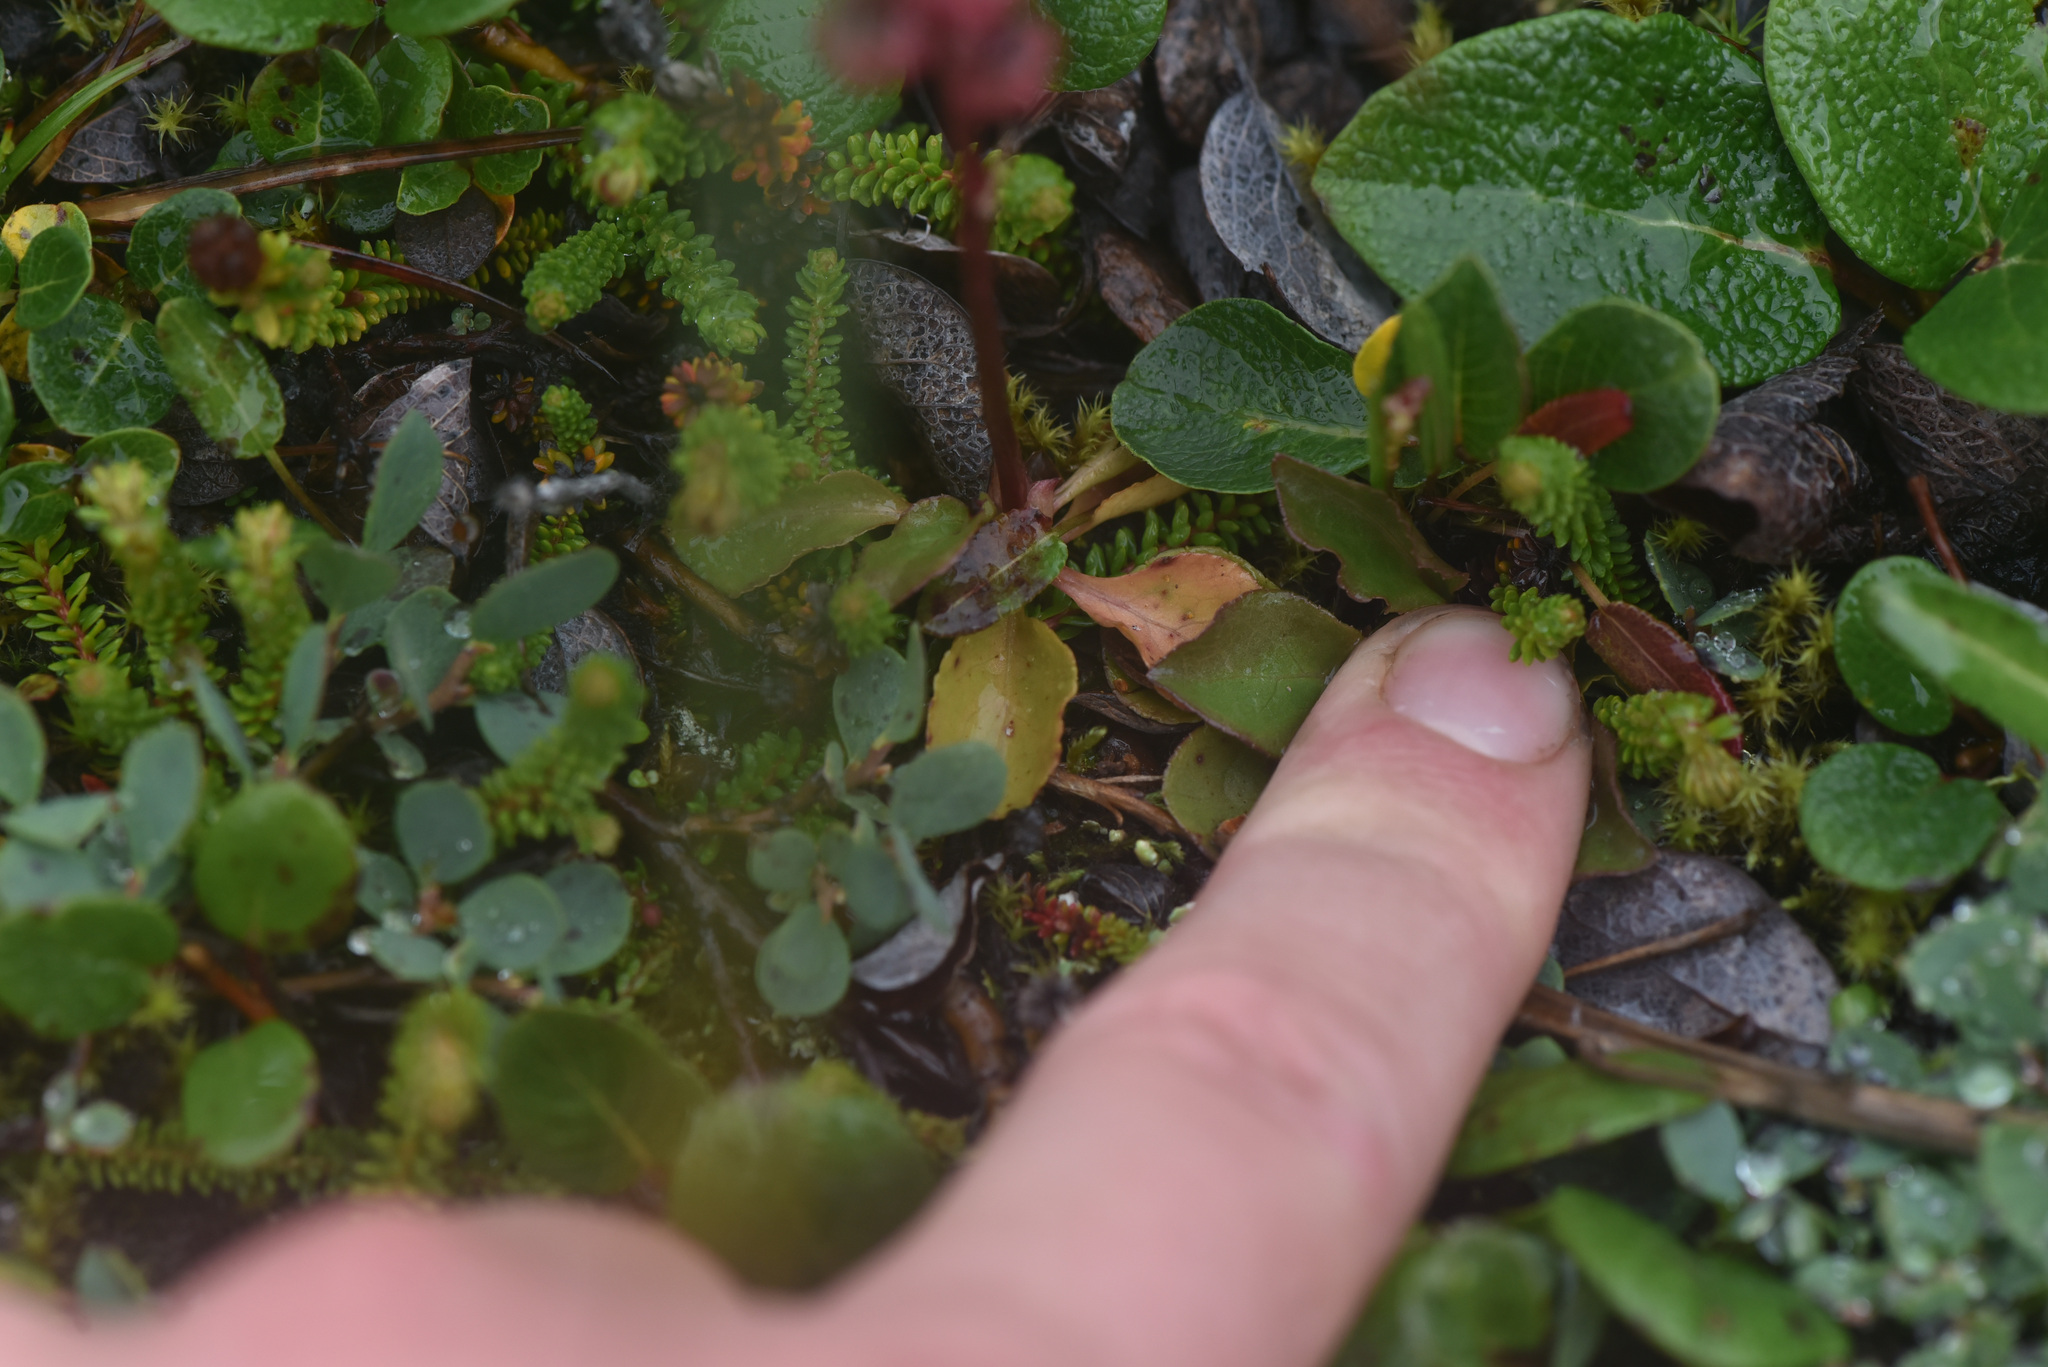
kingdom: Plantae
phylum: Tracheophyta
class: Magnoliopsida
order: Ericales
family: Ericaceae
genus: Pyrola
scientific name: Pyrola minor
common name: Common wintergreen
